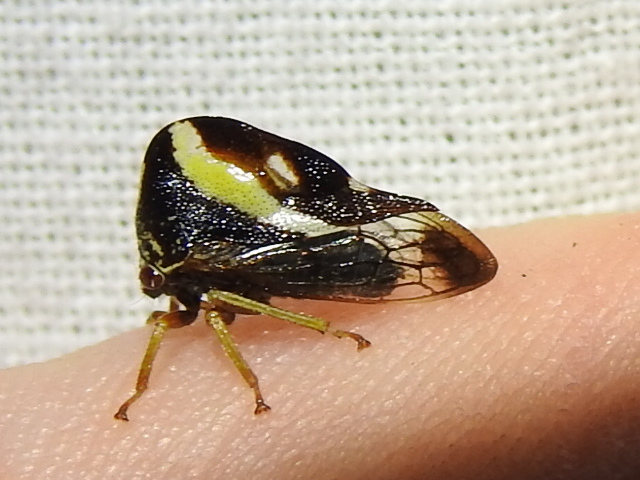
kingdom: Animalia
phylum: Arthropoda
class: Insecta
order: Hemiptera
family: Membracidae
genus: Smilia
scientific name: Smilia camelus
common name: Camel treehopper
